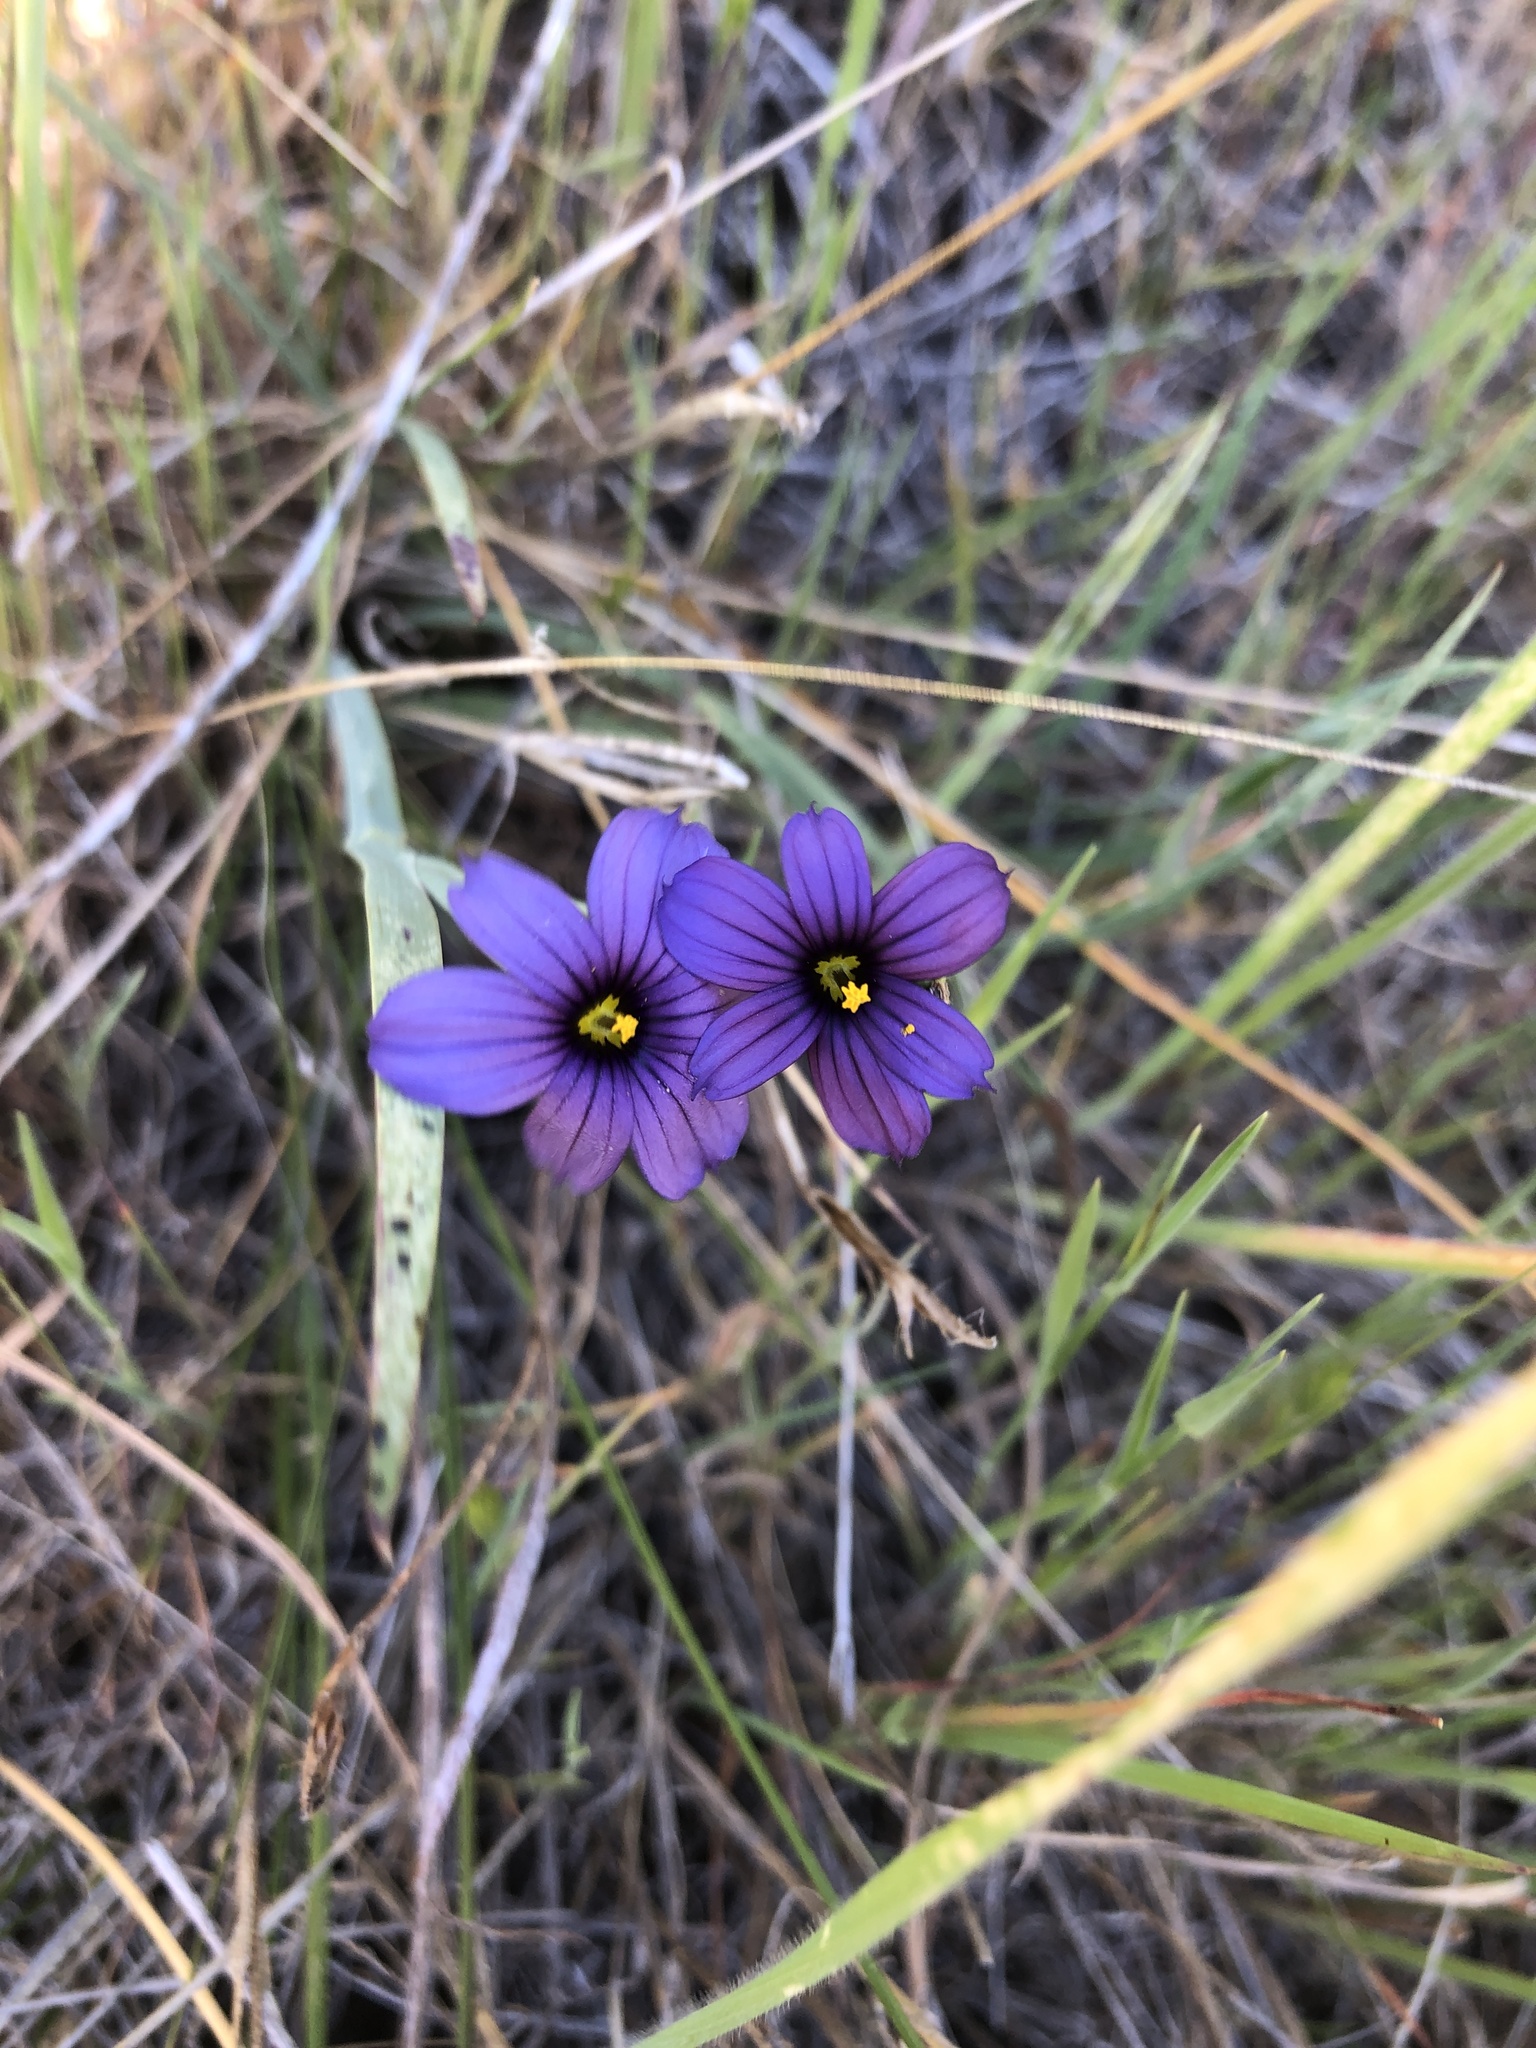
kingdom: Plantae
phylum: Tracheophyta
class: Liliopsida
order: Asparagales
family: Iridaceae
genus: Sisyrinchium
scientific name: Sisyrinchium bellum
